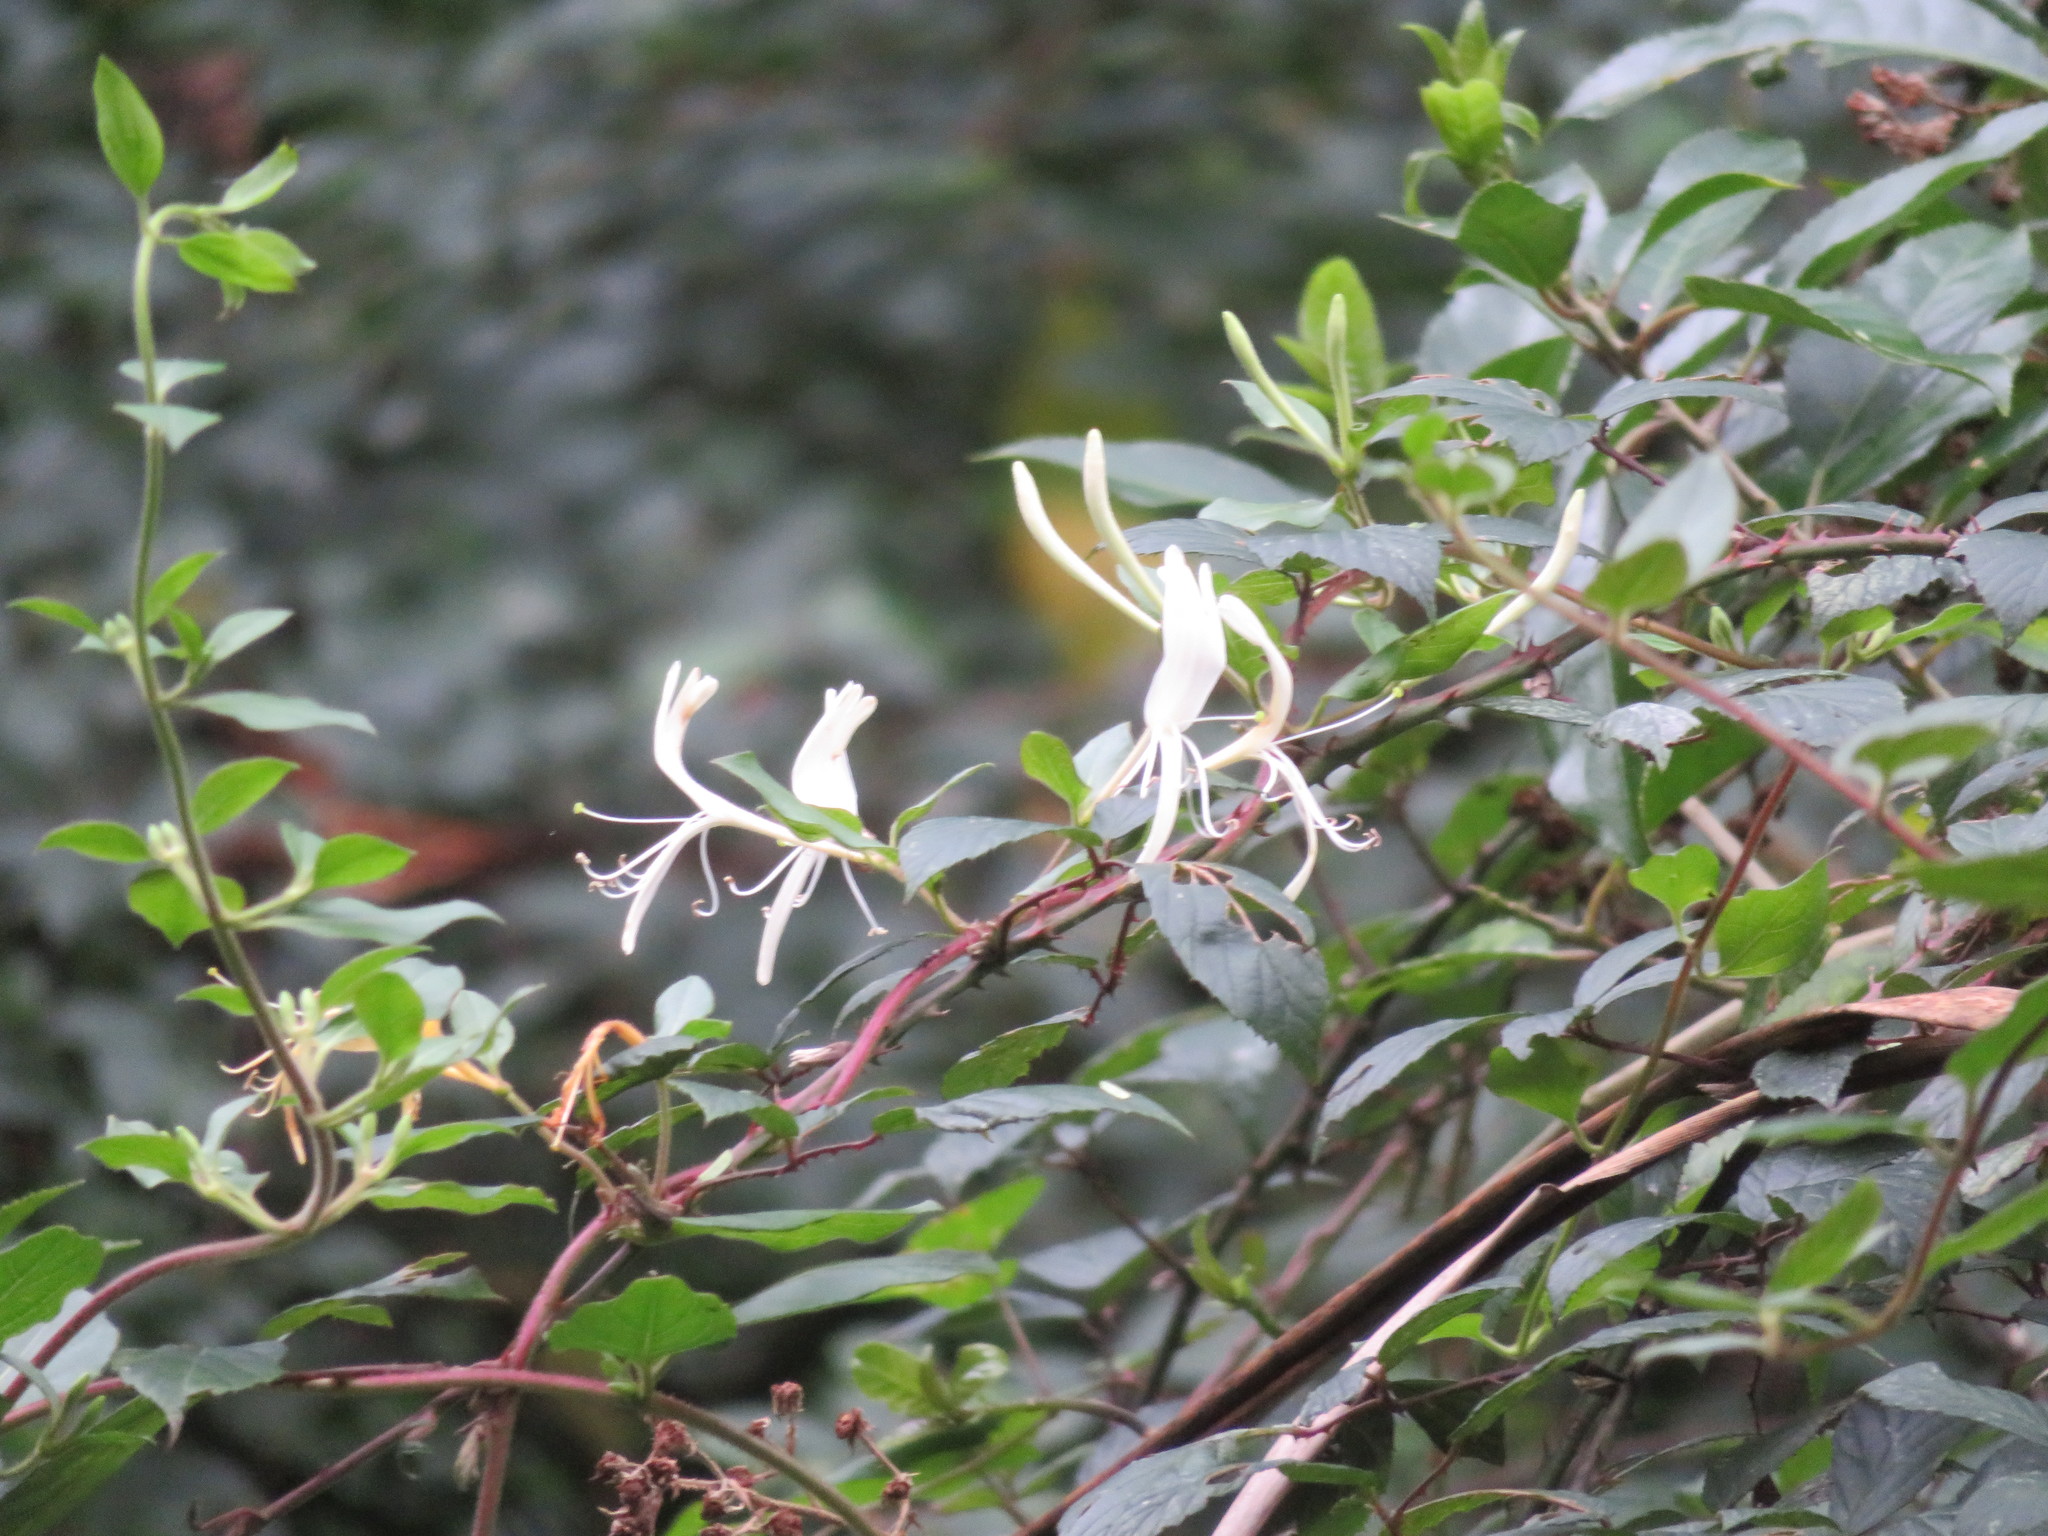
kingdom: Plantae
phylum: Tracheophyta
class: Magnoliopsida
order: Dipsacales
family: Caprifoliaceae
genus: Lonicera
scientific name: Lonicera japonica
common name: Japanese honeysuckle
